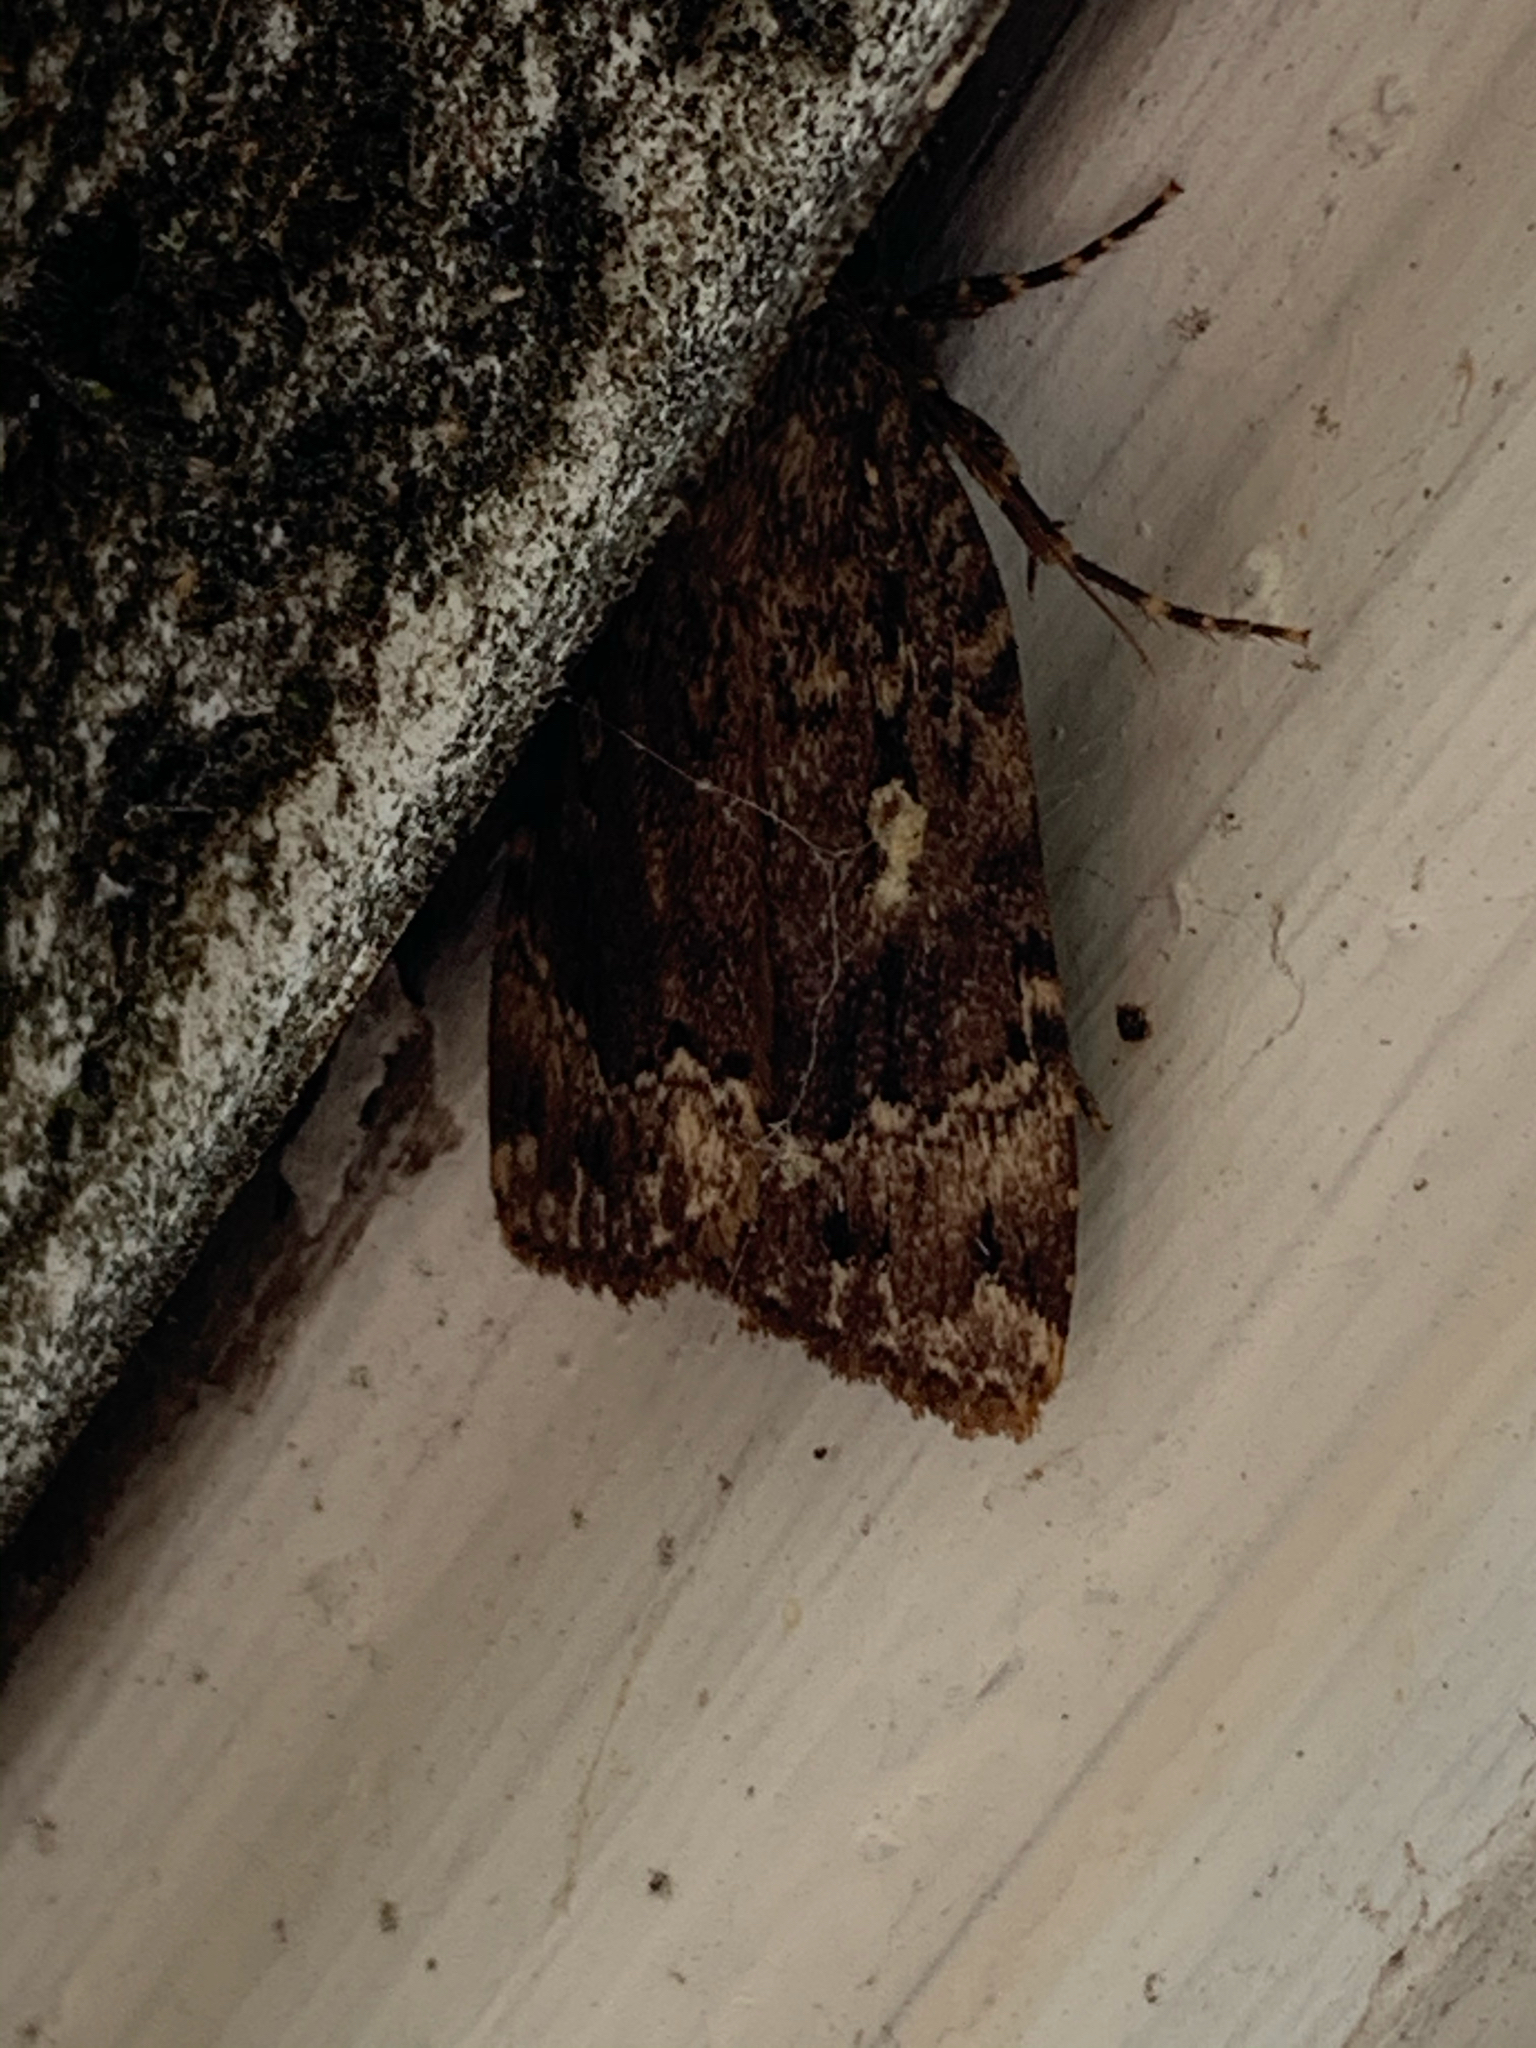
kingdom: Animalia
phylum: Arthropoda
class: Insecta
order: Lepidoptera
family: Noctuidae
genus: Amphipyra
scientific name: Amphipyra pyramidoides
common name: American copper underwing
